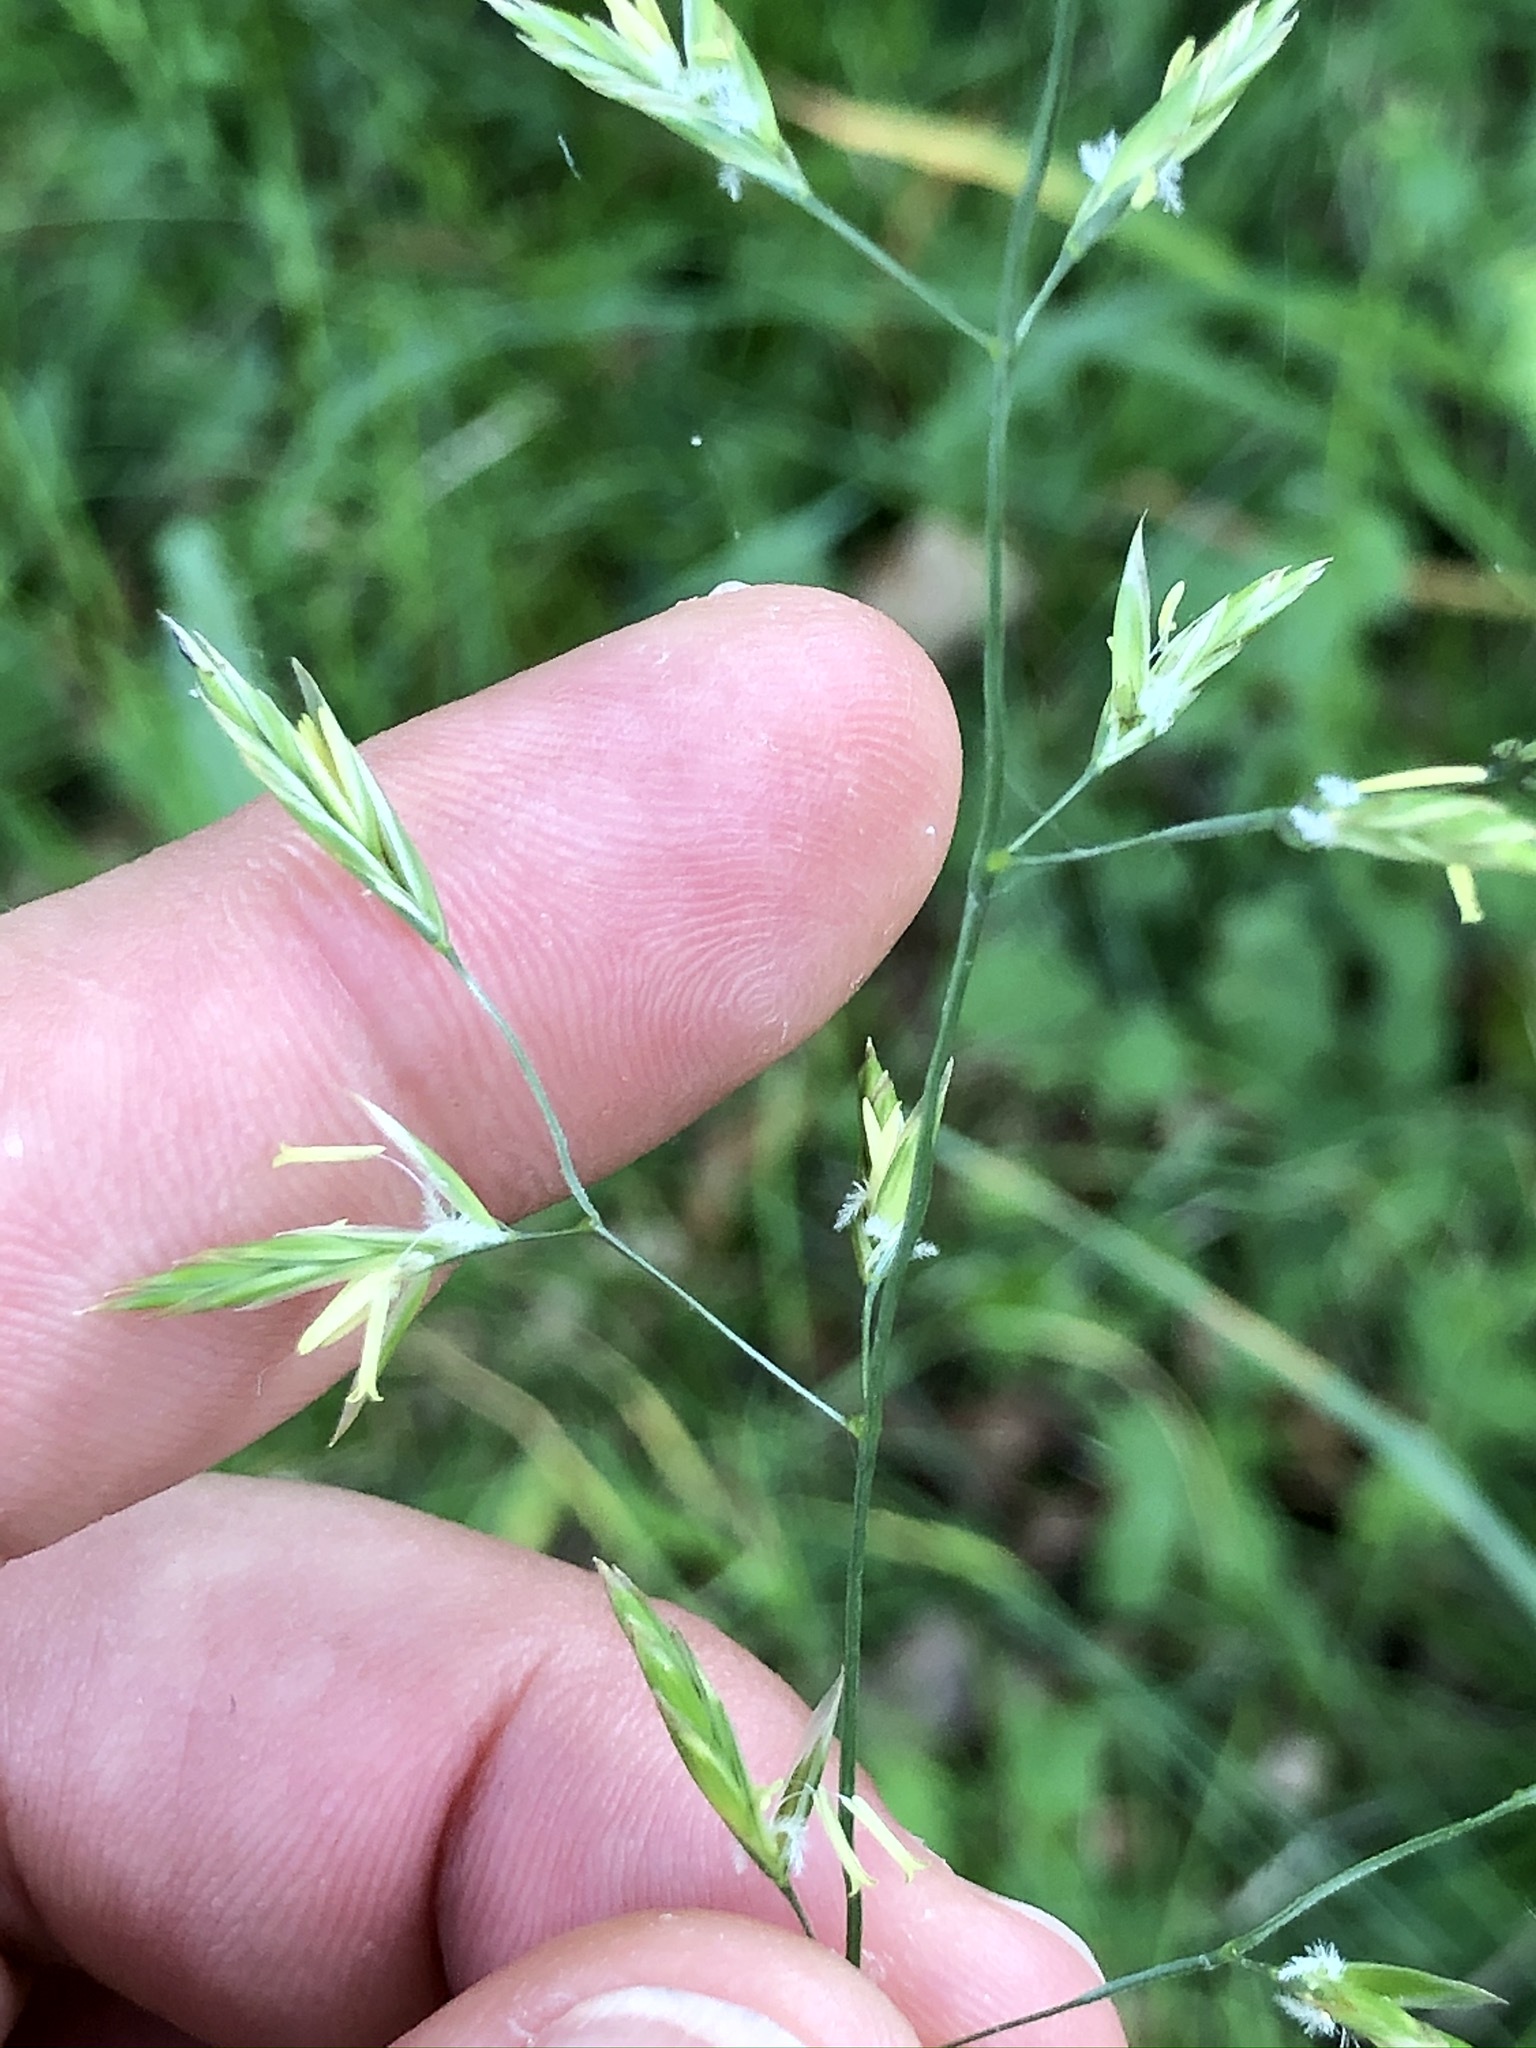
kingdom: Plantae
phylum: Tracheophyta
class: Liliopsida
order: Poales
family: Poaceae
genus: Lolium
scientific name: Lolium pratense
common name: Dover grass
